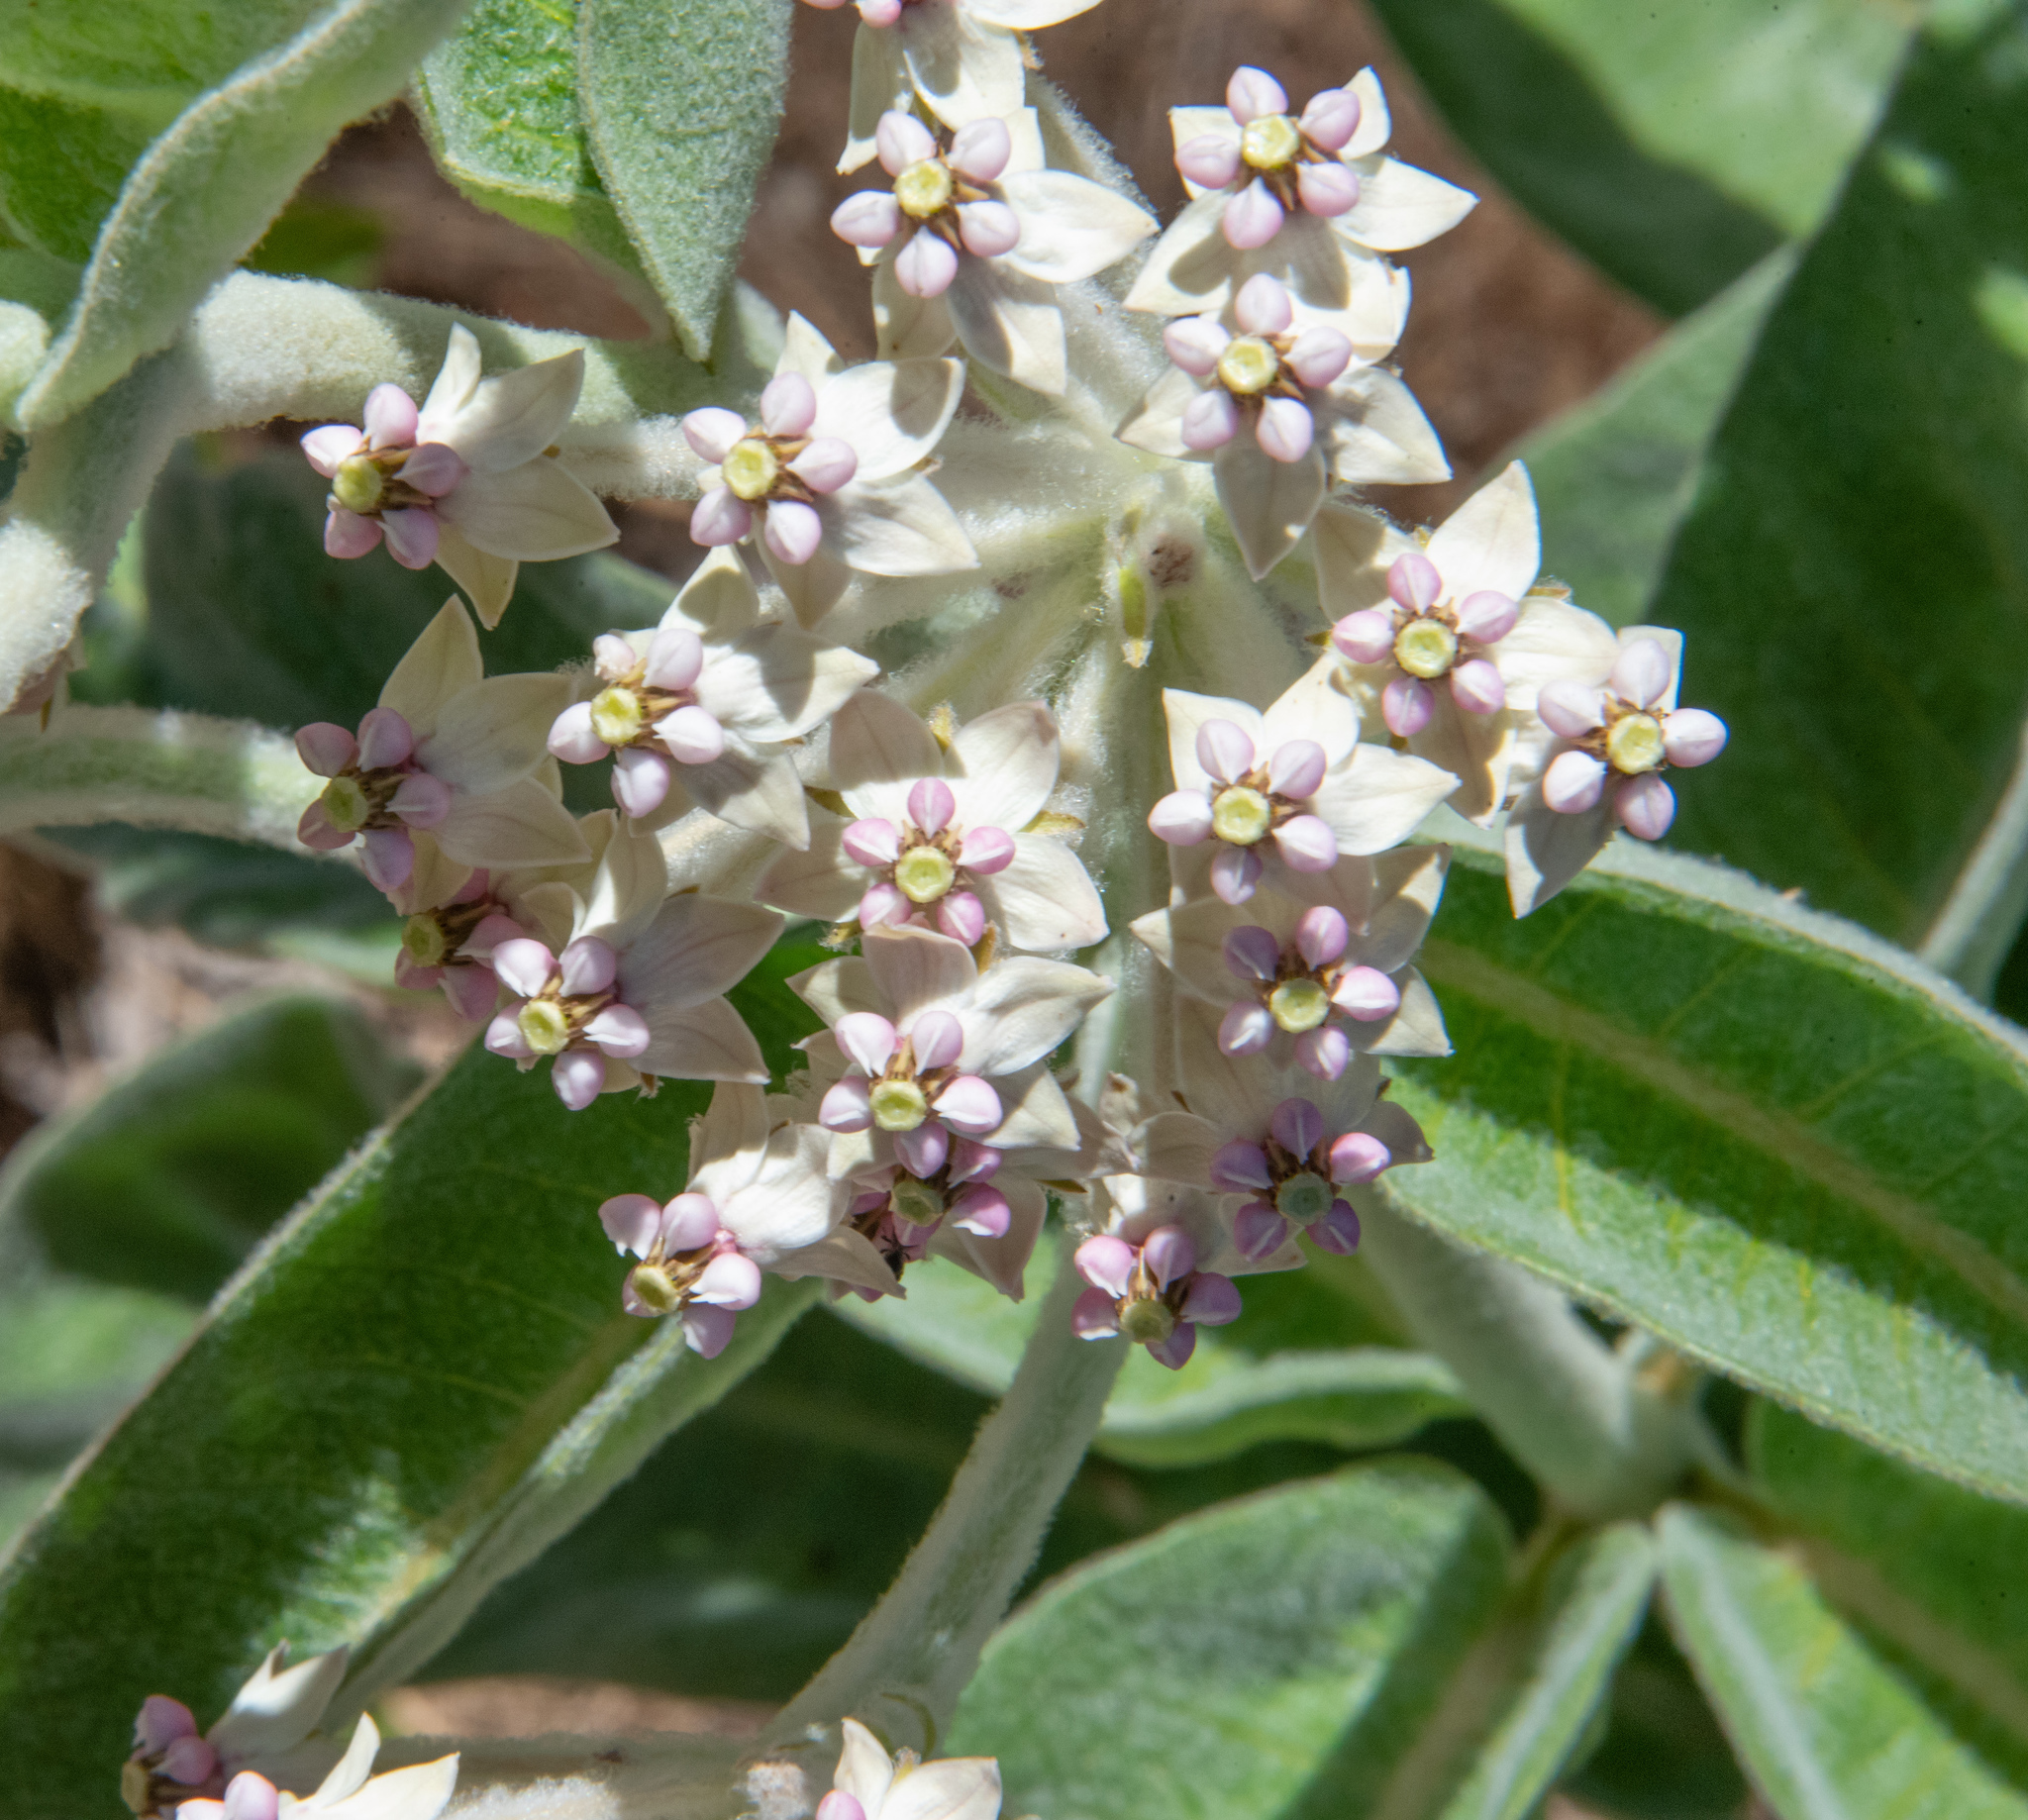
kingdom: Plantae
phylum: Tracheophyta
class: Magnoliopsida
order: Gentianales
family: Apocynaceae
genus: Asclepias
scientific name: Asclepias eriocarpa
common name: Indian milkweed
